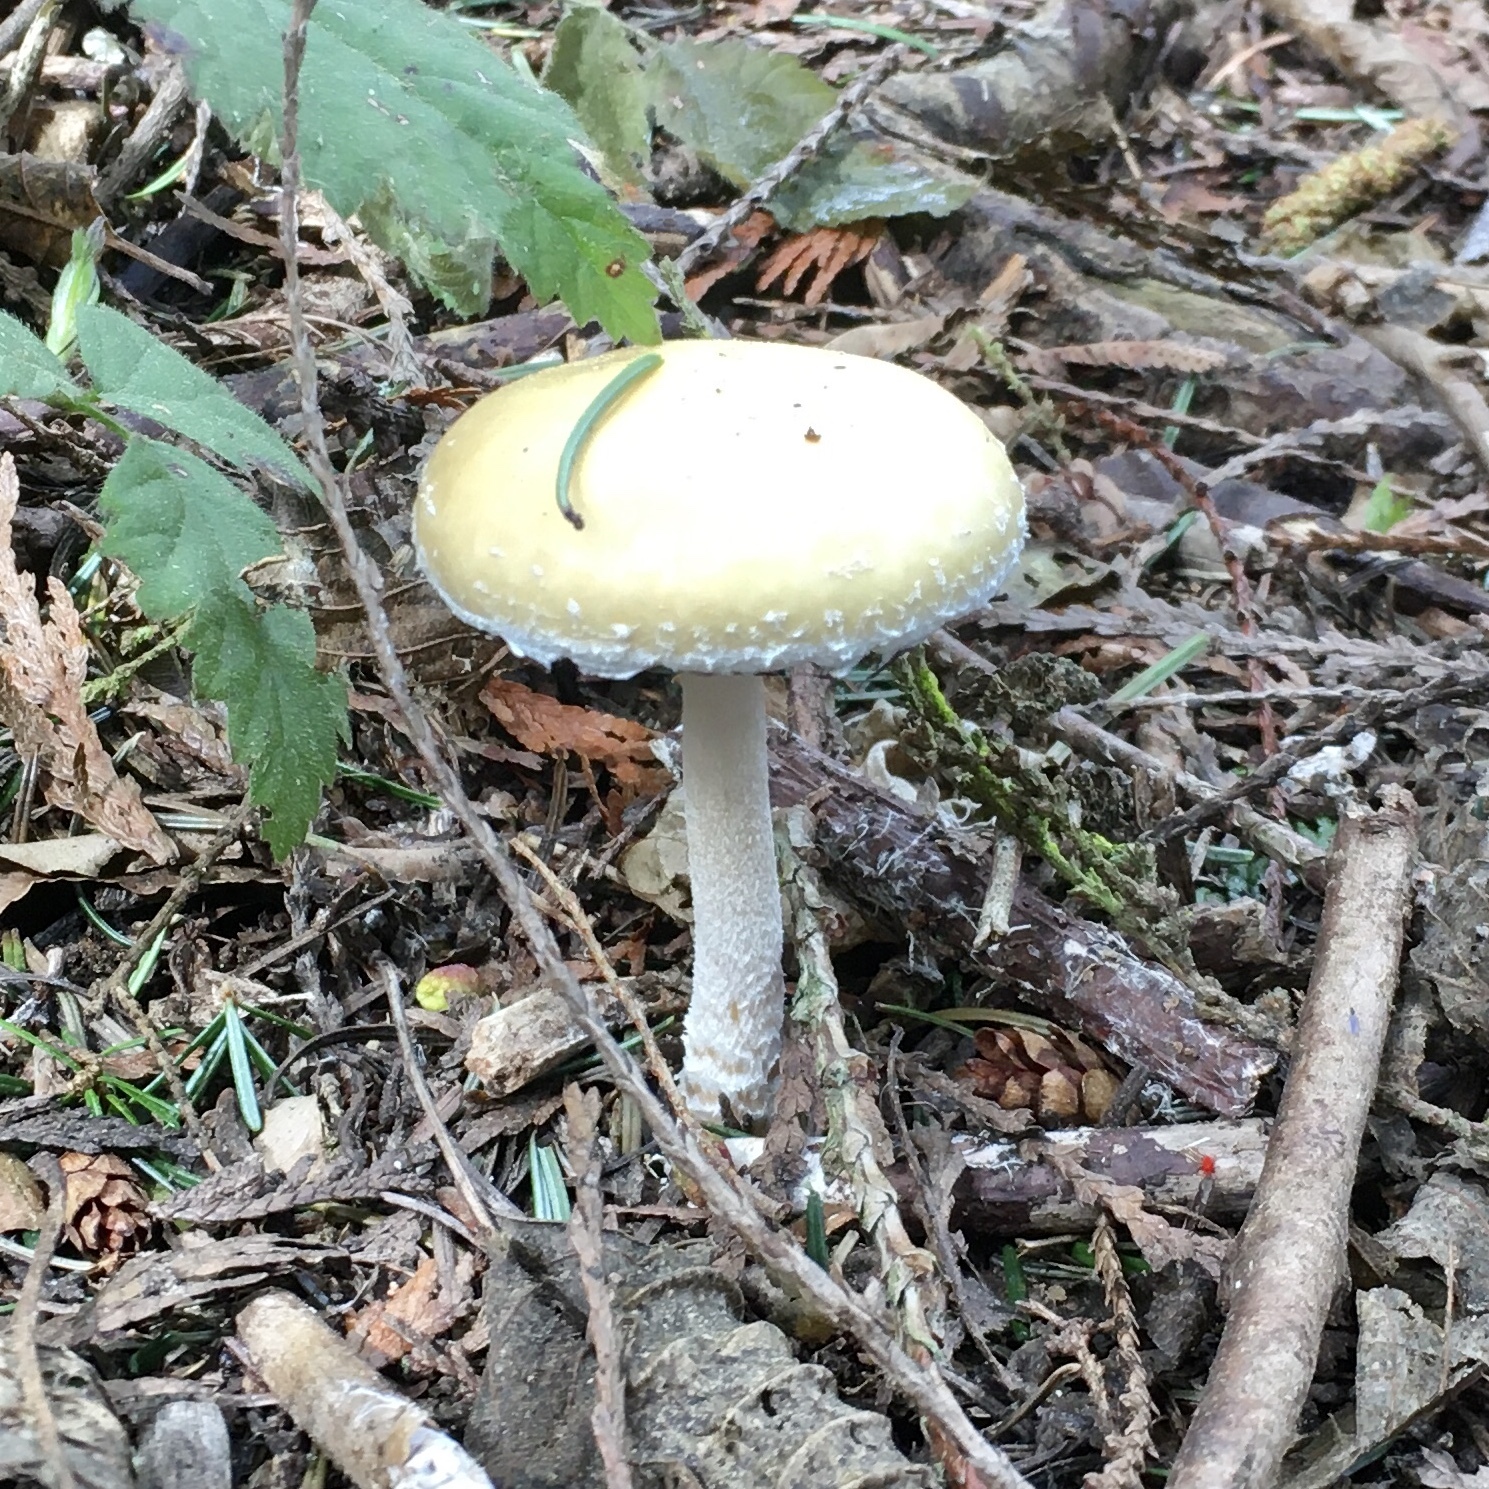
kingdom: Fungi
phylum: Basidiomycota
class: Agaricomycetes
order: Agaricales
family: Strophariaceae
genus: Stropharia
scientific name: Stropharia ambigua
